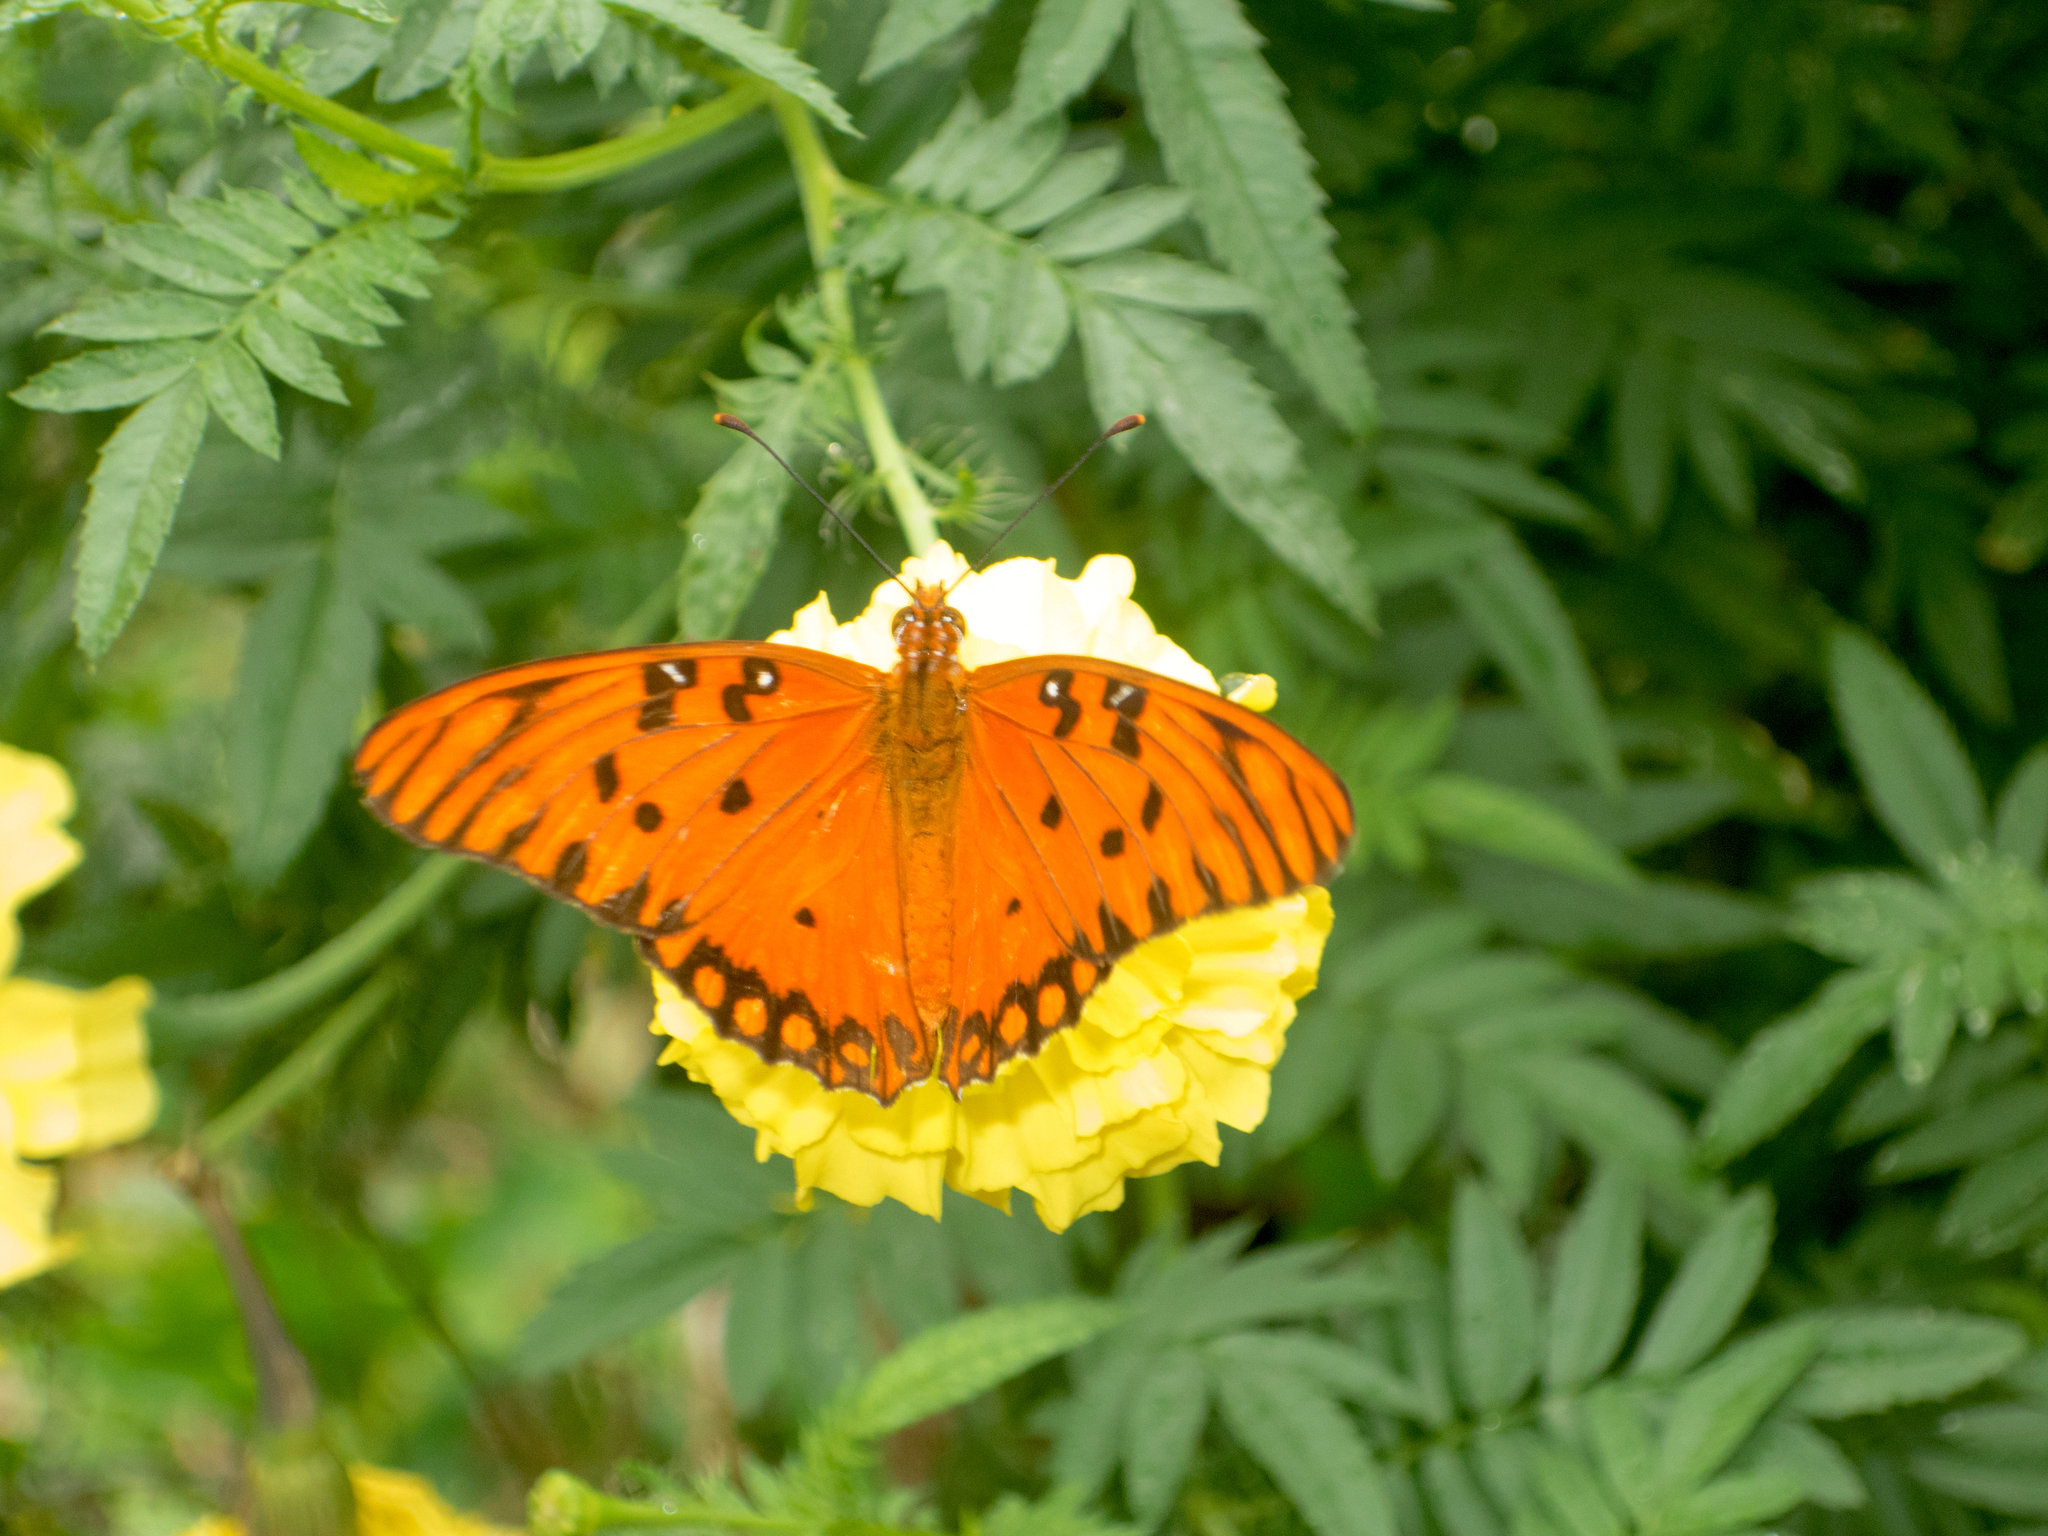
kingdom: Animalia
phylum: Arthropoda
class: Insecta
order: Lepidoptera
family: Nymphalidae
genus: Dione
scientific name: Dione vanillae
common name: Gulf fritillary
